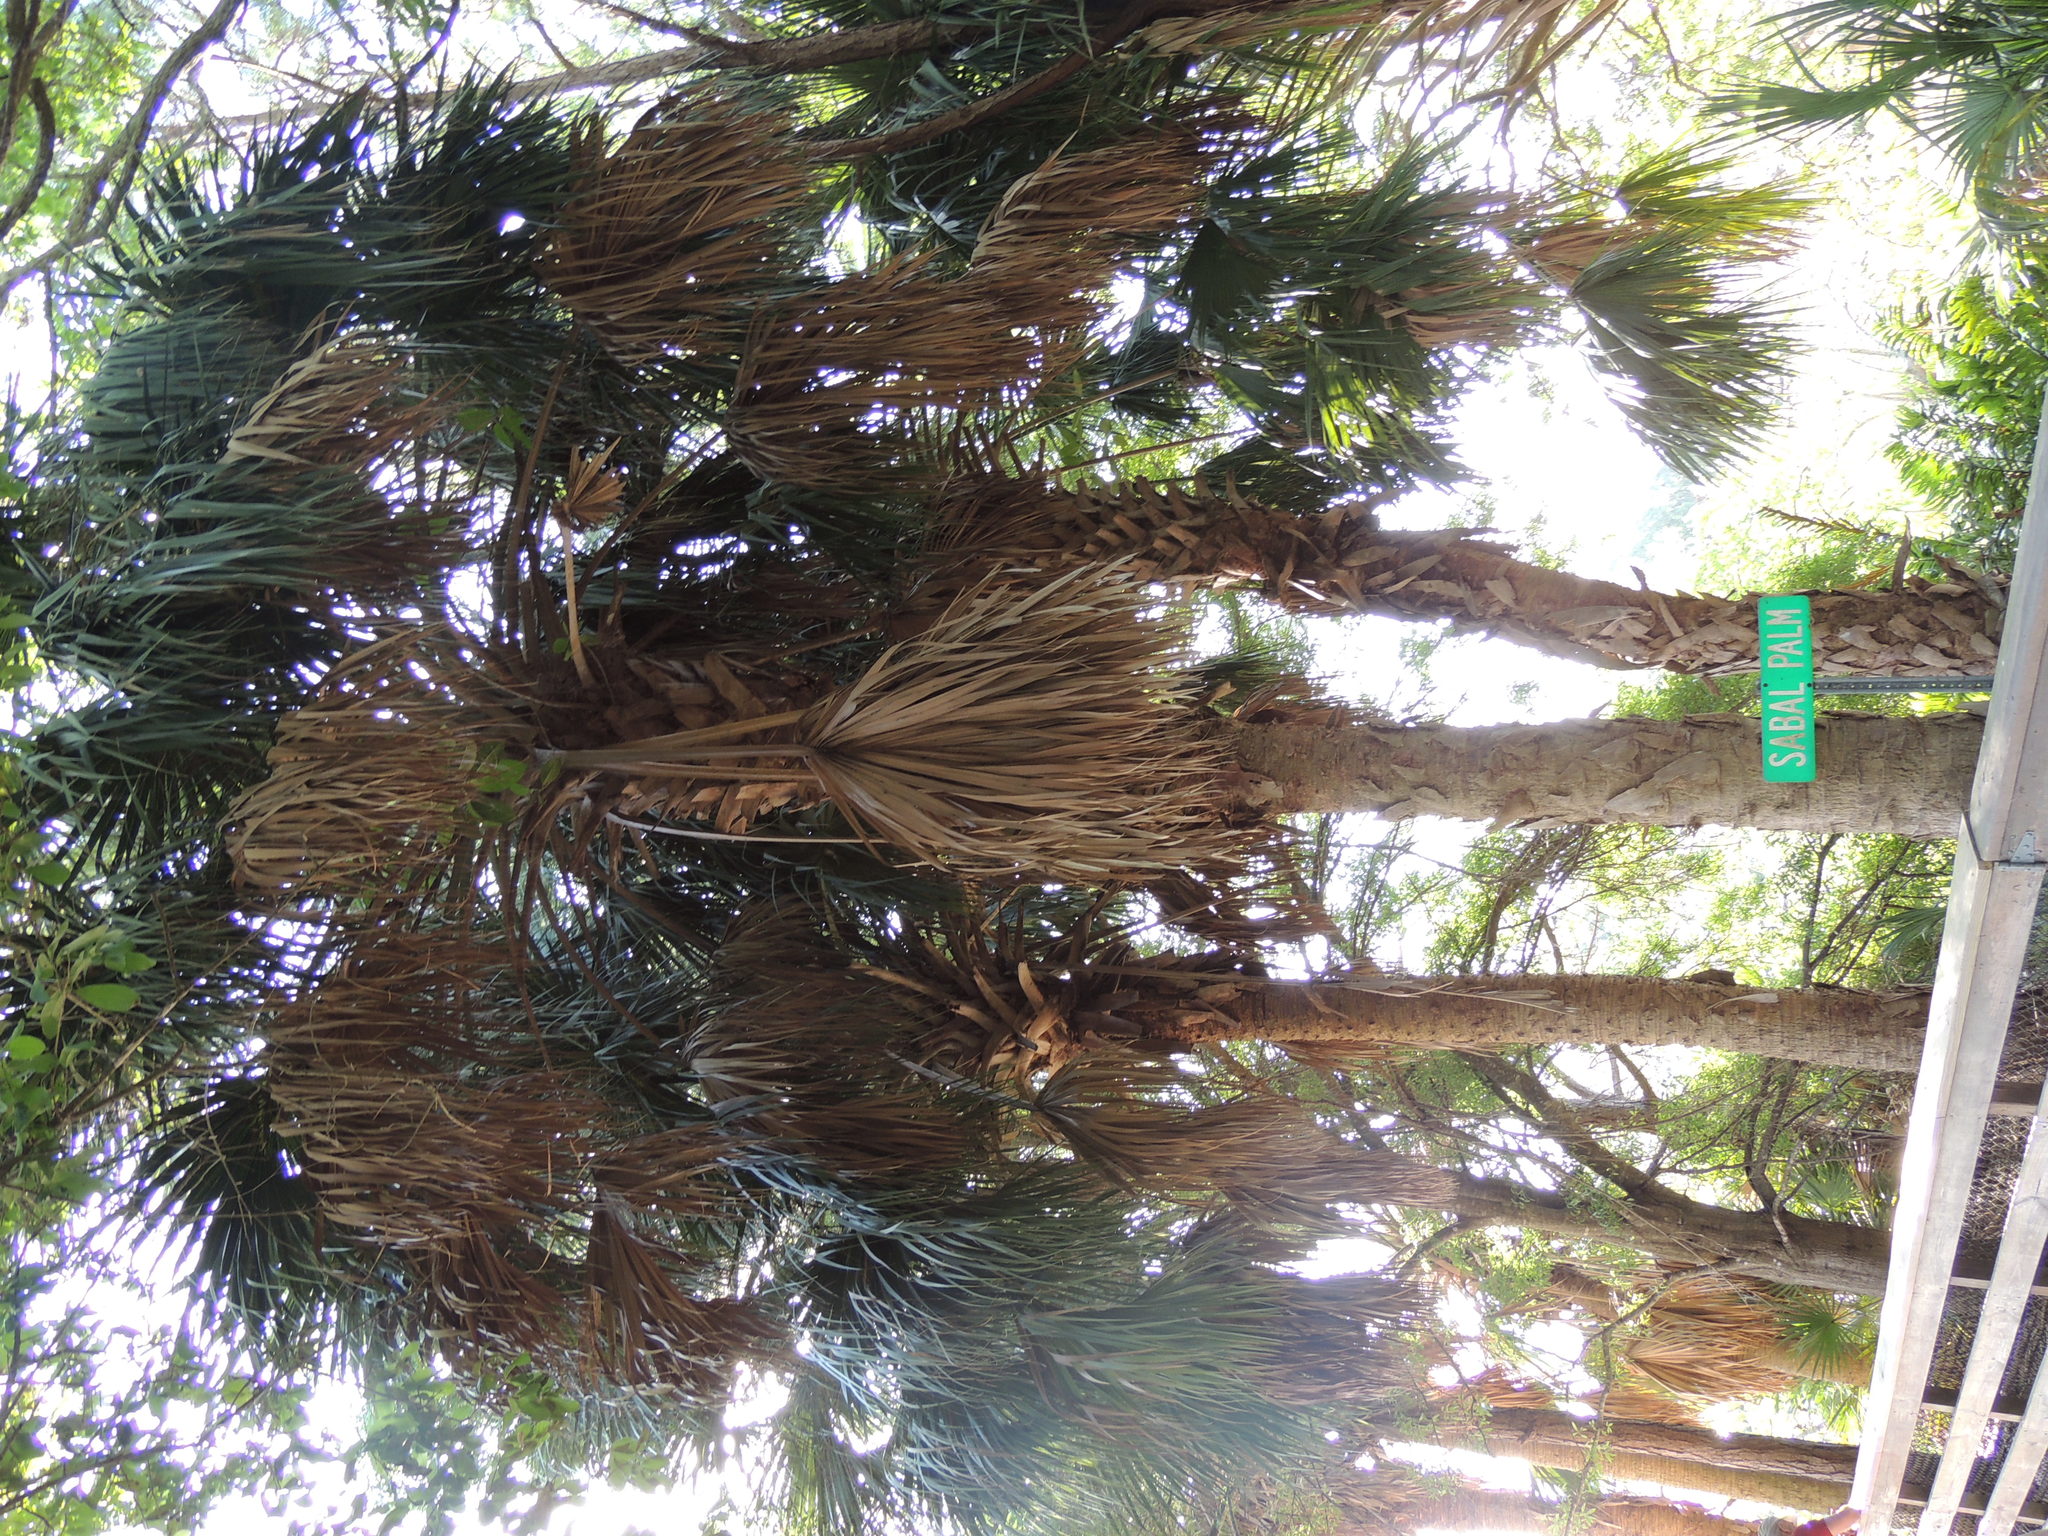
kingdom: Plantae
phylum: Tracheophyta
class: Liliopsida
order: Arecales
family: Arecaceae
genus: Sabal
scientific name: Sabal palmetto
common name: Blue palmetto
